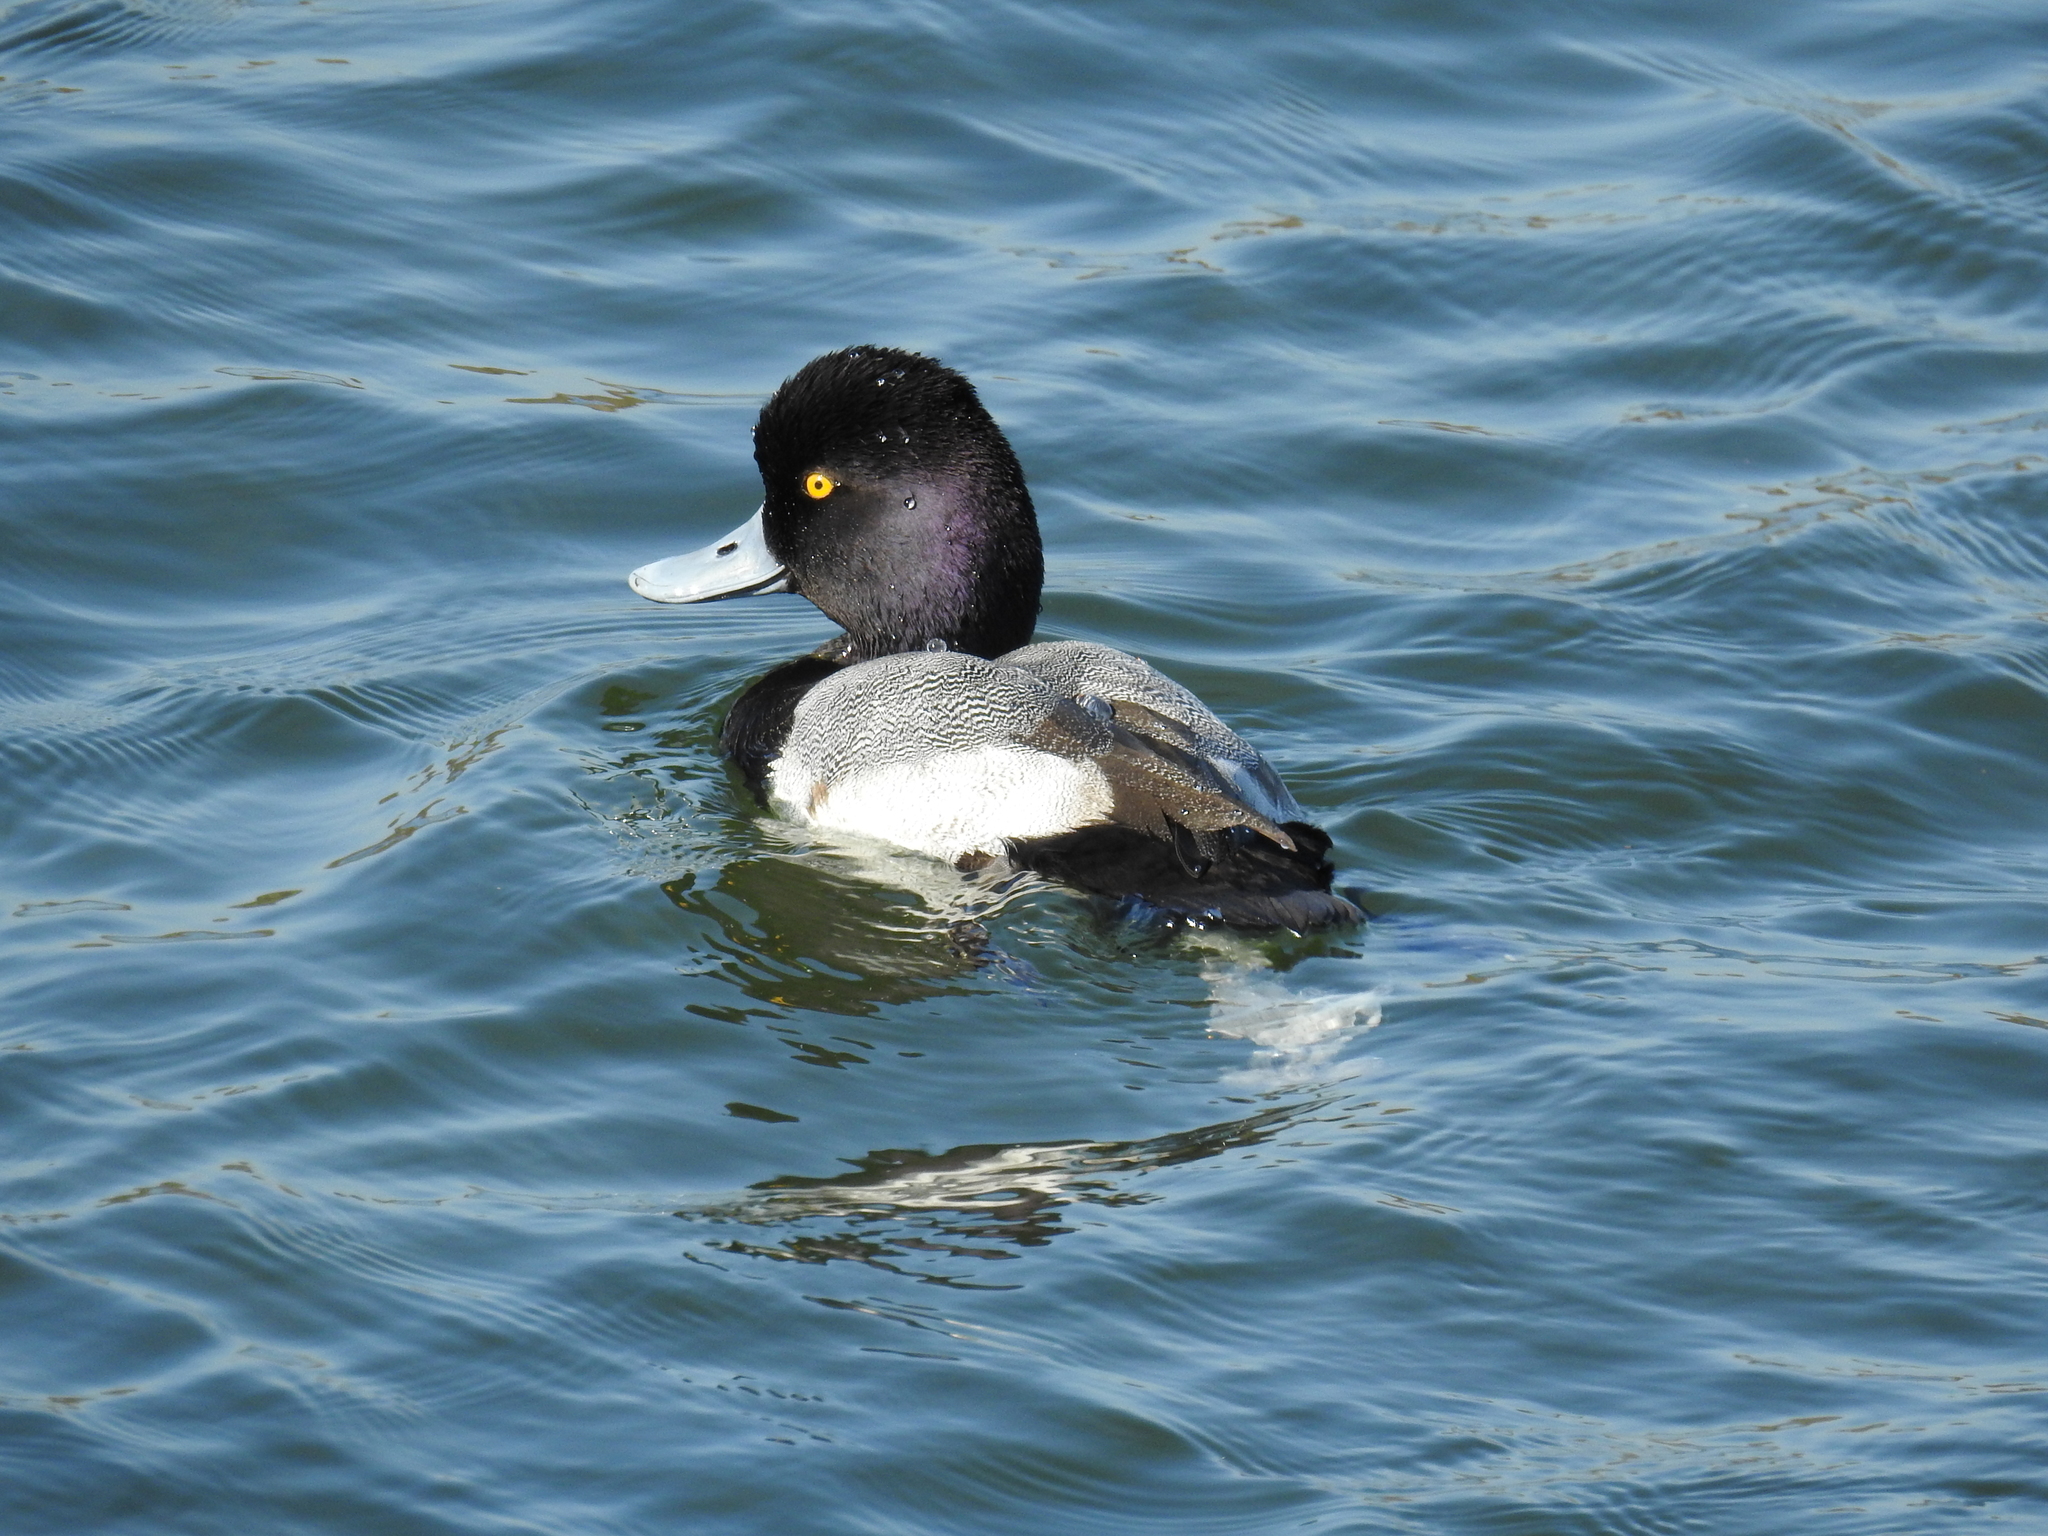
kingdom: Animalia
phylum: Chordata
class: Aves
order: Anseriformes
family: Anatidae
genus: Aythya
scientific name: Aythya affinis
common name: Lesser scaup
